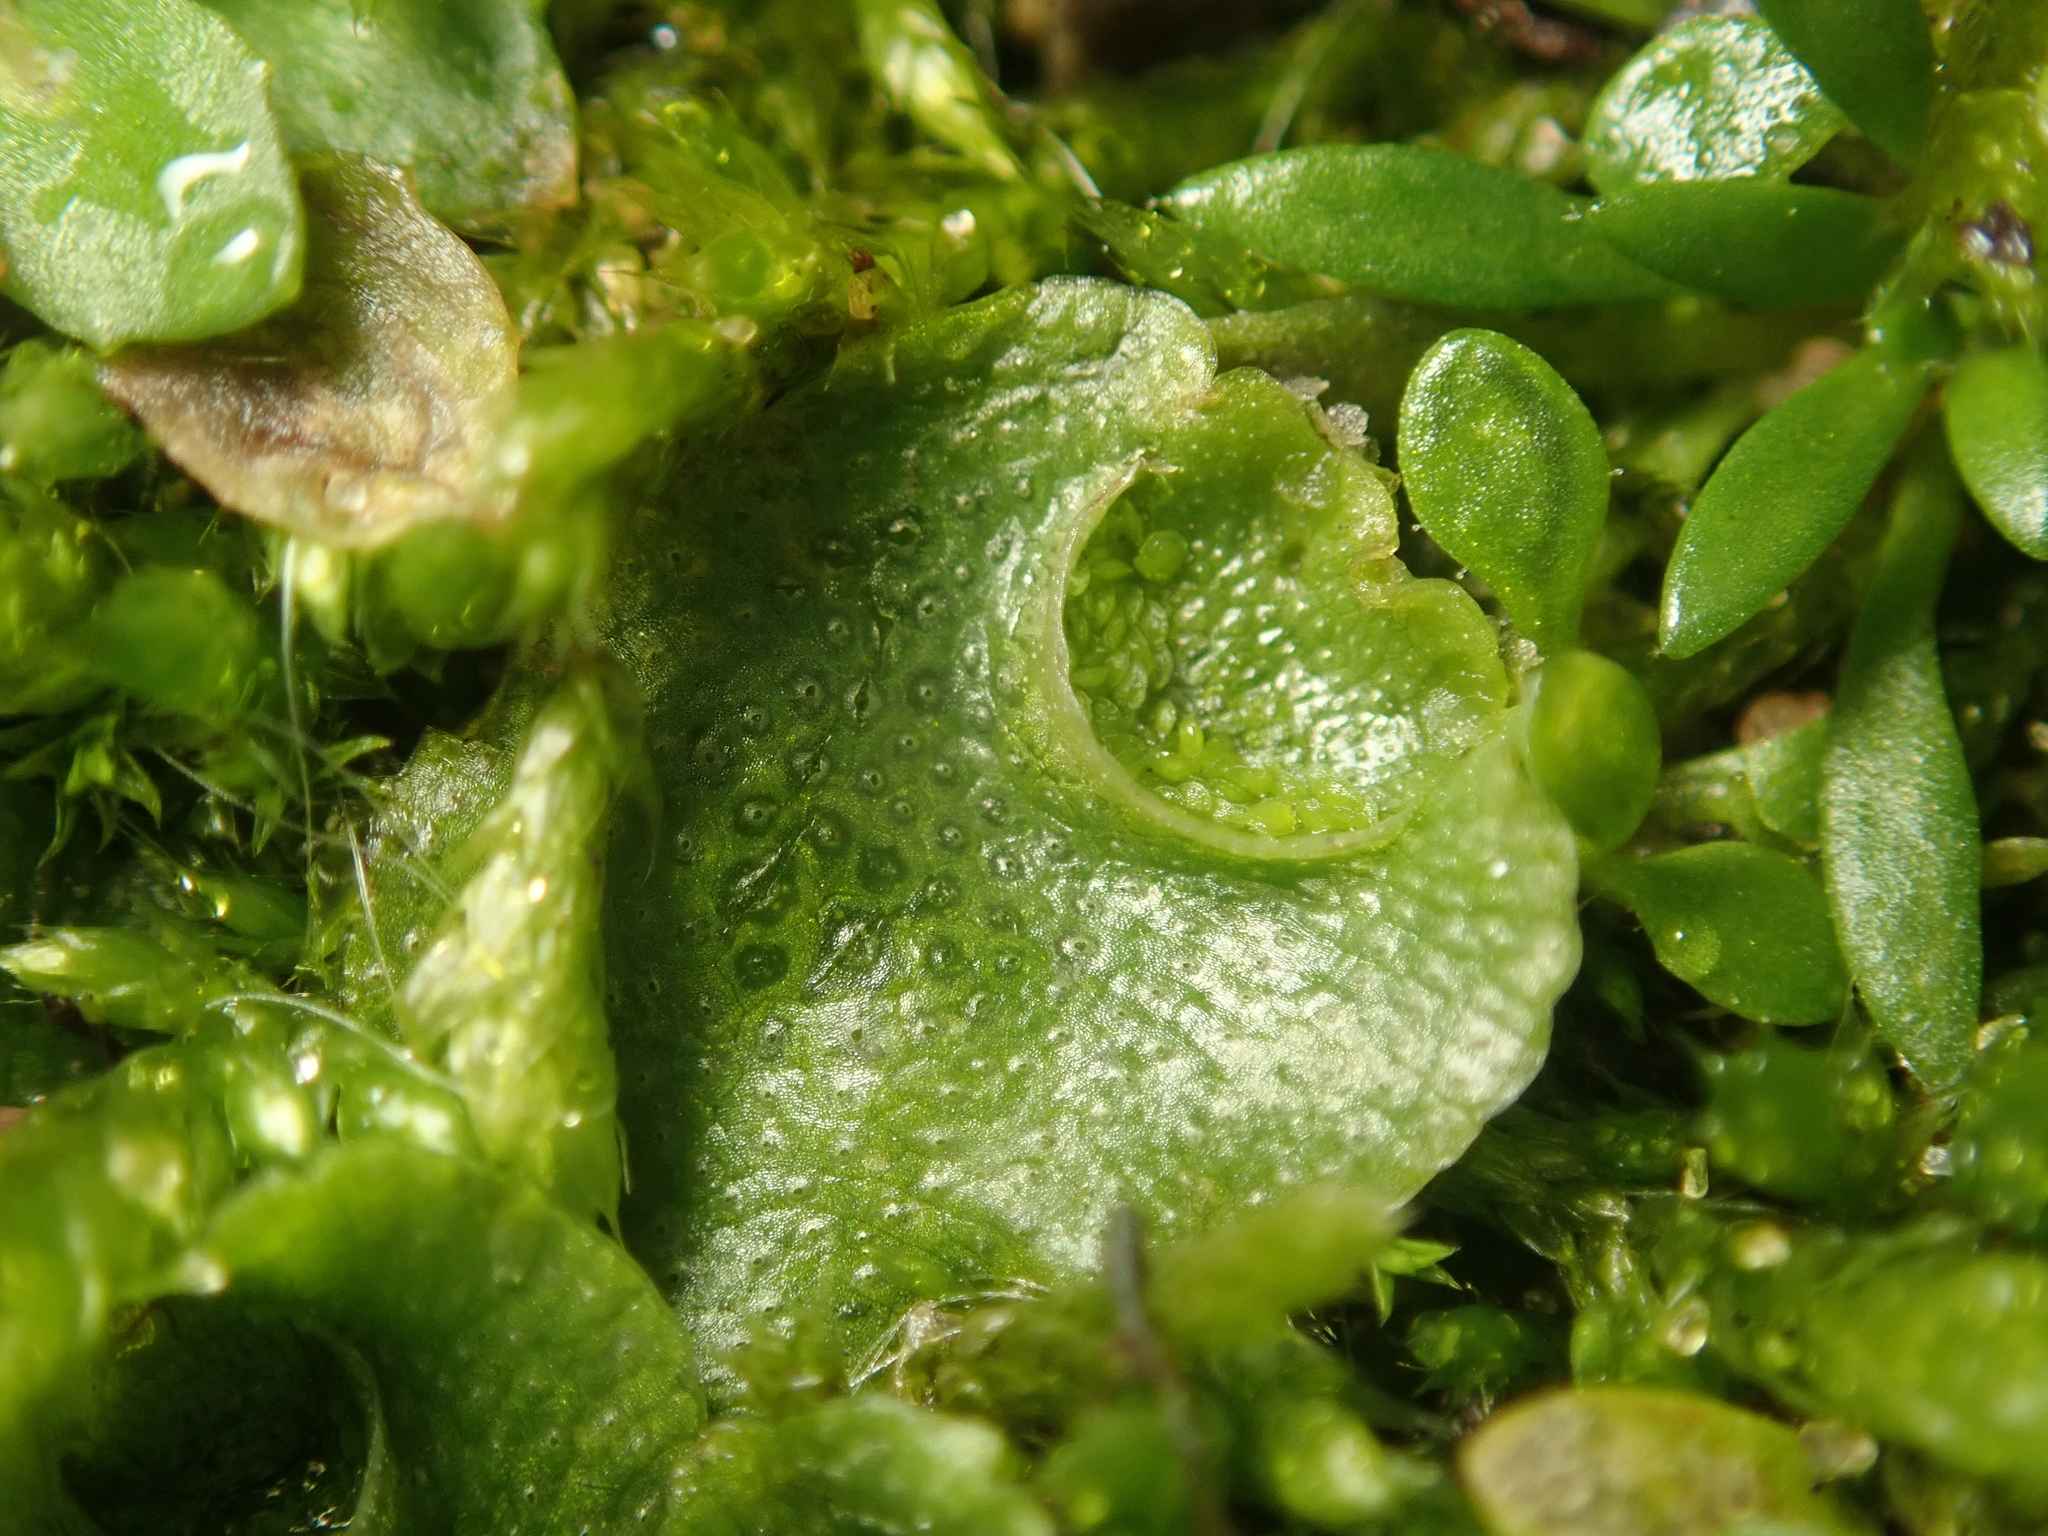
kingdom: Plantae
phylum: Marchantiophyta
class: Marchantiopsida
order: Lunulariales
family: Lunulariaceae
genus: Lunularia
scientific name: Lunularia cruciata
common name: Crescent-cup liverwort
